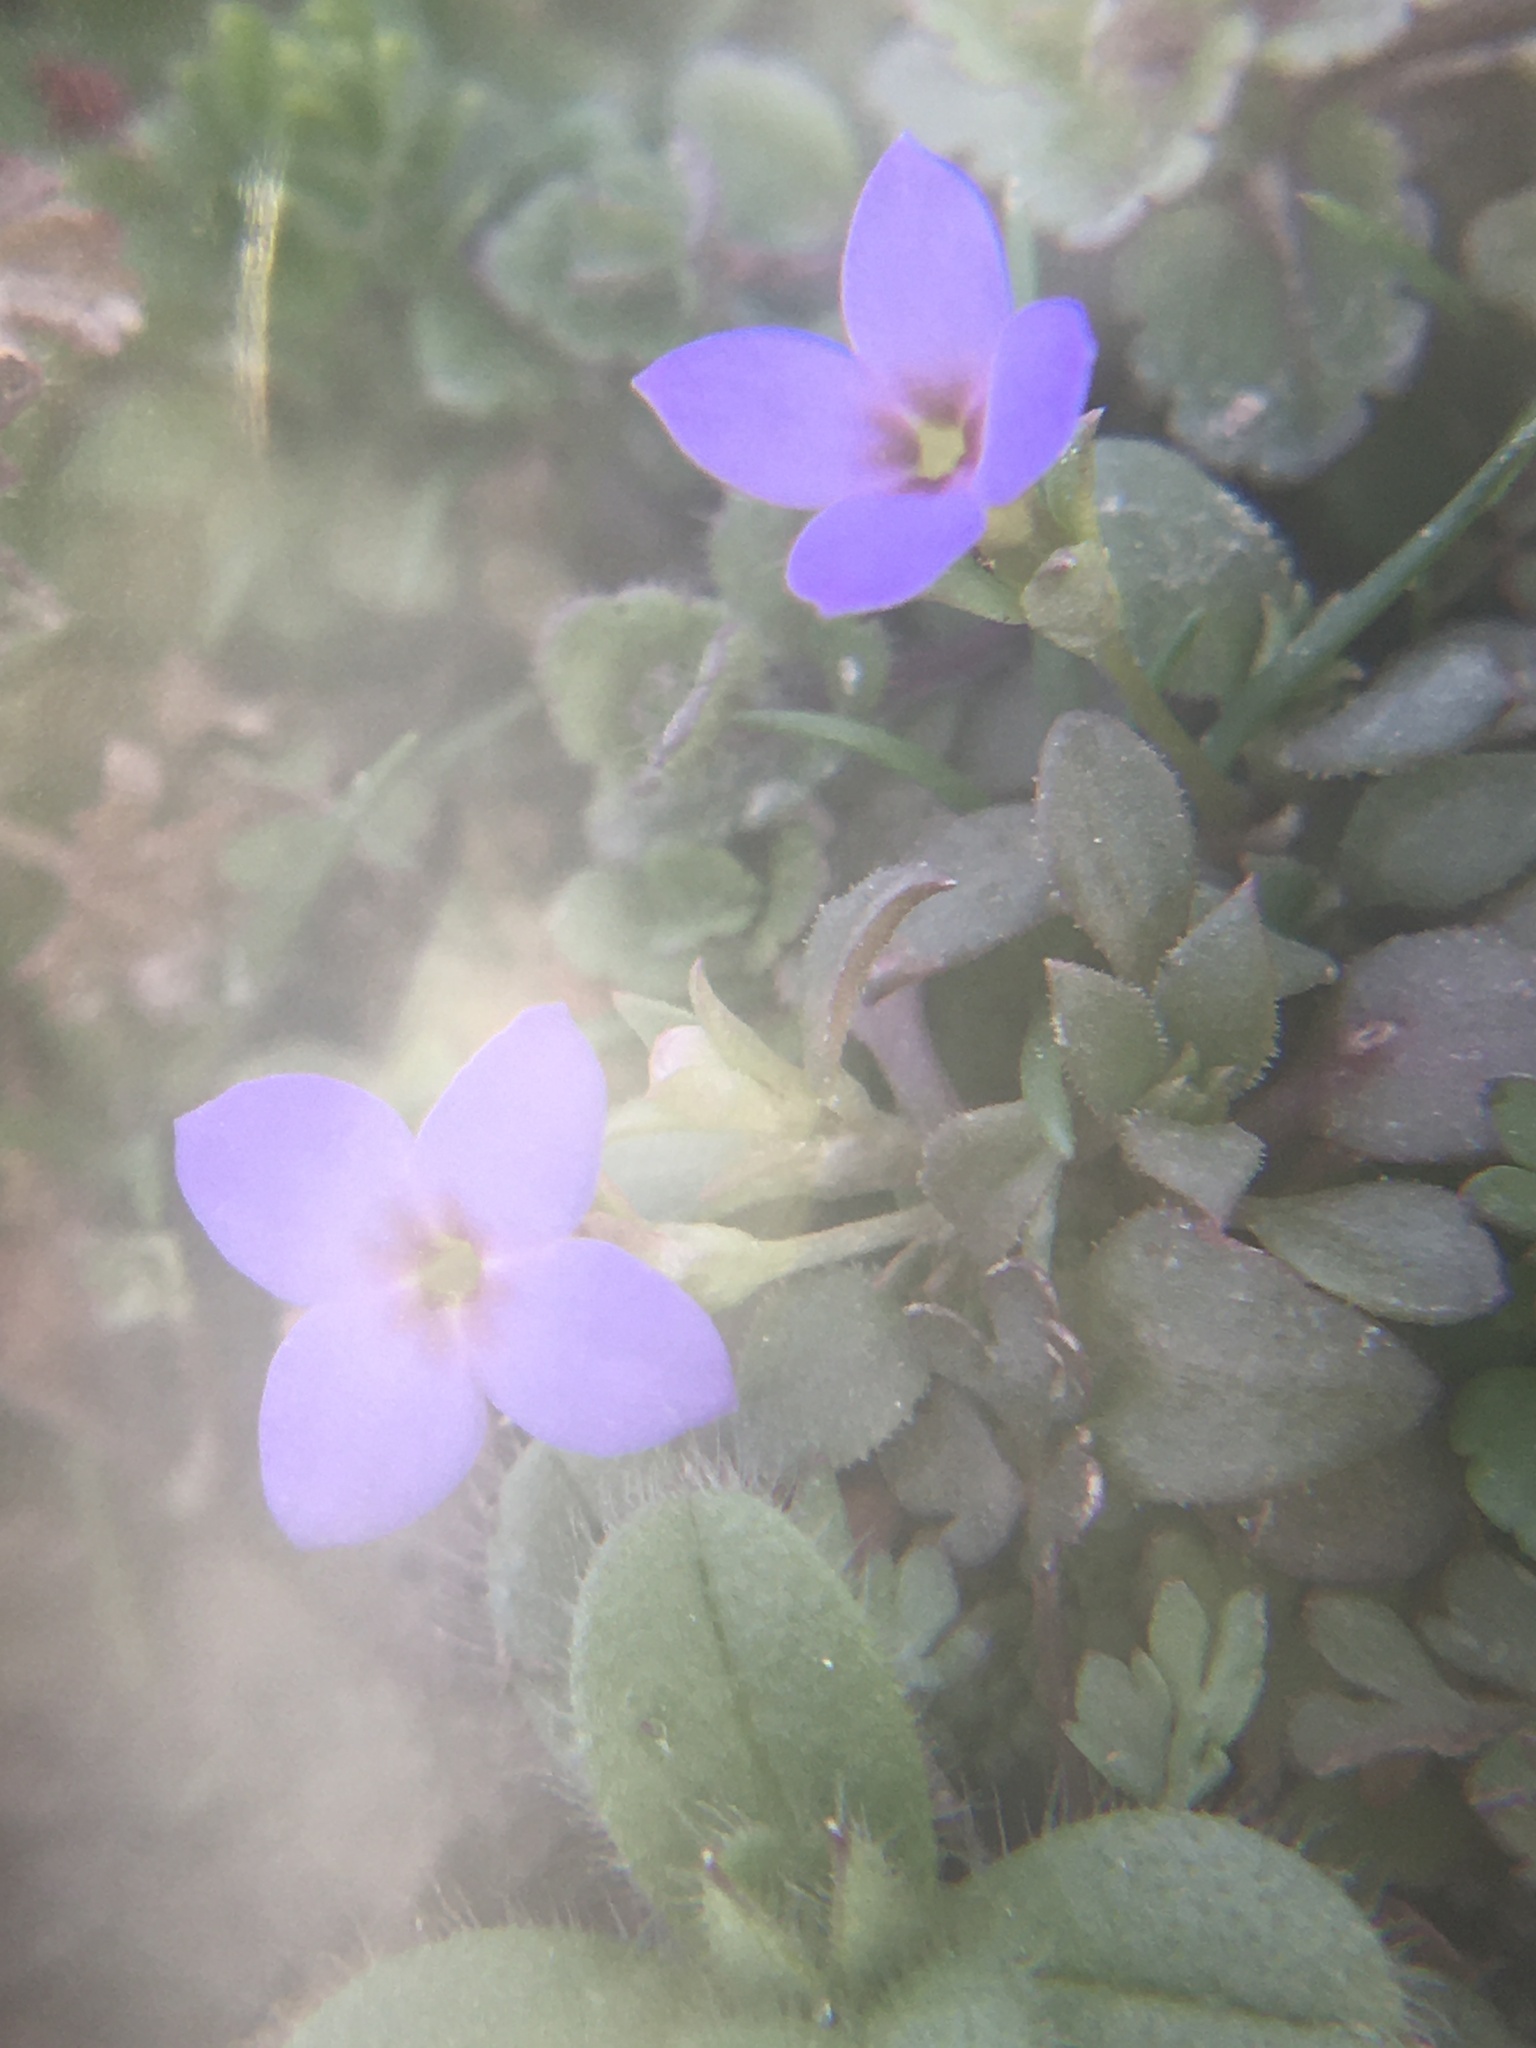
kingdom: Plantae
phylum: Tracheophyta
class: Magnoliopsida
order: Gentianales
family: Rubiaceae
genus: Houstonia
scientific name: Houstonia pusilla
